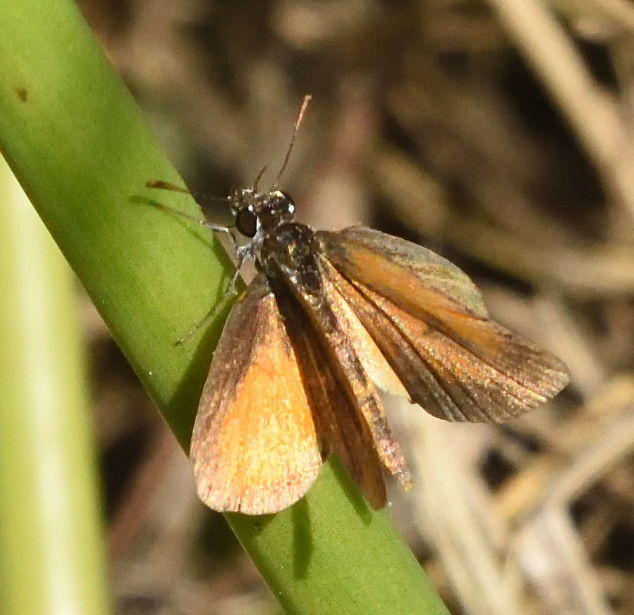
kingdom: Animalia
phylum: Arthropoda
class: Insecta
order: Lepidoptera
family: Hesperiidae
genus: Ancyloxypha
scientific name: Ancyloxypha numitor
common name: Least skipper
